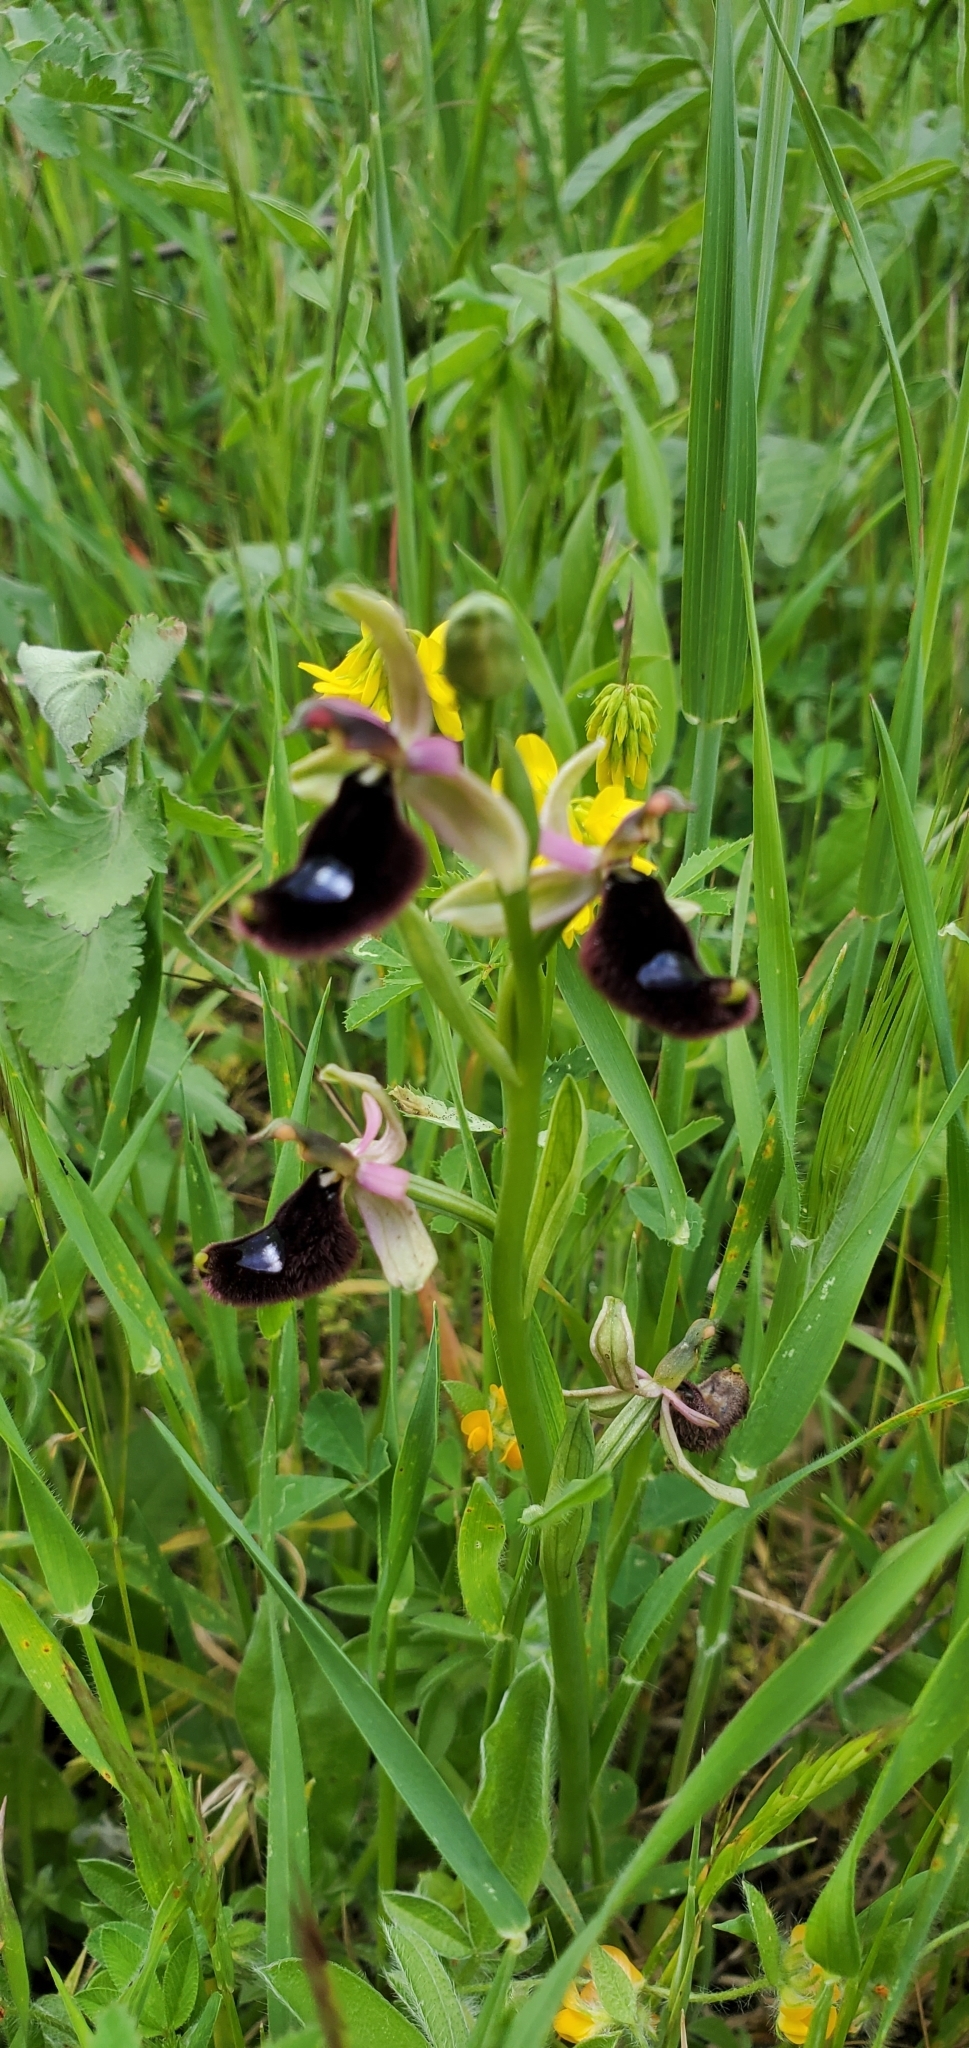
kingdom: Plantae
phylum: Tracheophyta
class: Liliopsida
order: Asparagales
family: Orchidaceae
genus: Ophrys
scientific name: Ophrys bertolonii
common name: Bertoloni's bee orchid
